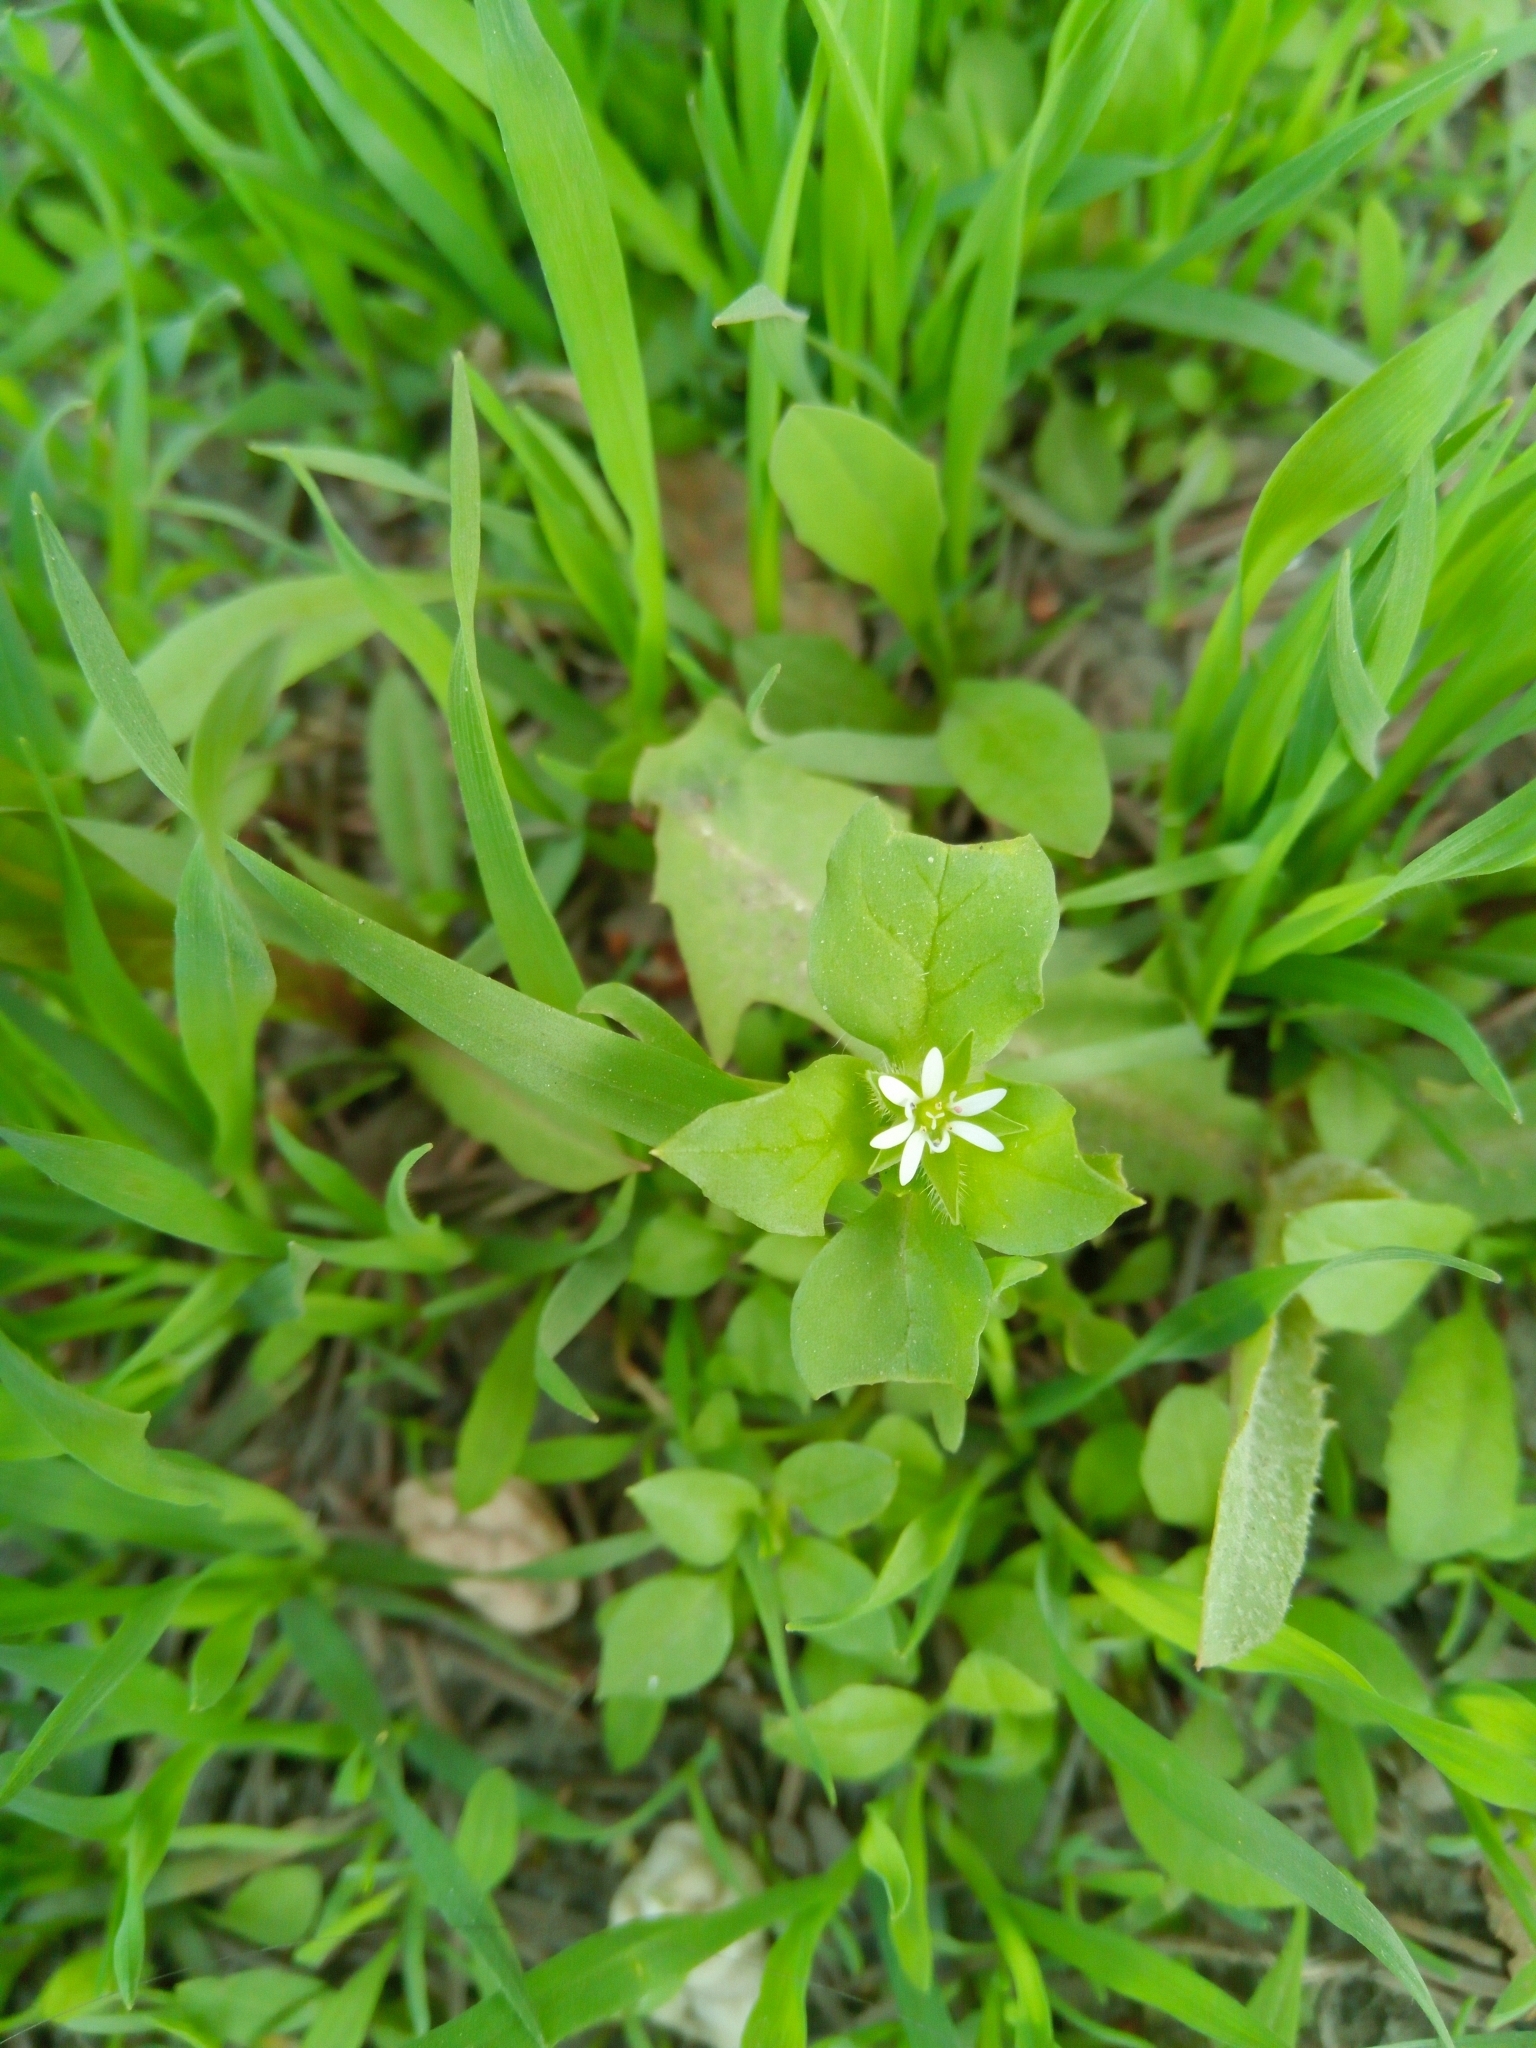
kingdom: Plantae
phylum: Tracheophyta
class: Magnoliopsida
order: Caryophyllales
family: Caryophyllaceae
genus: Stellaria
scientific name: Stellaria media
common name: Common chickweed
